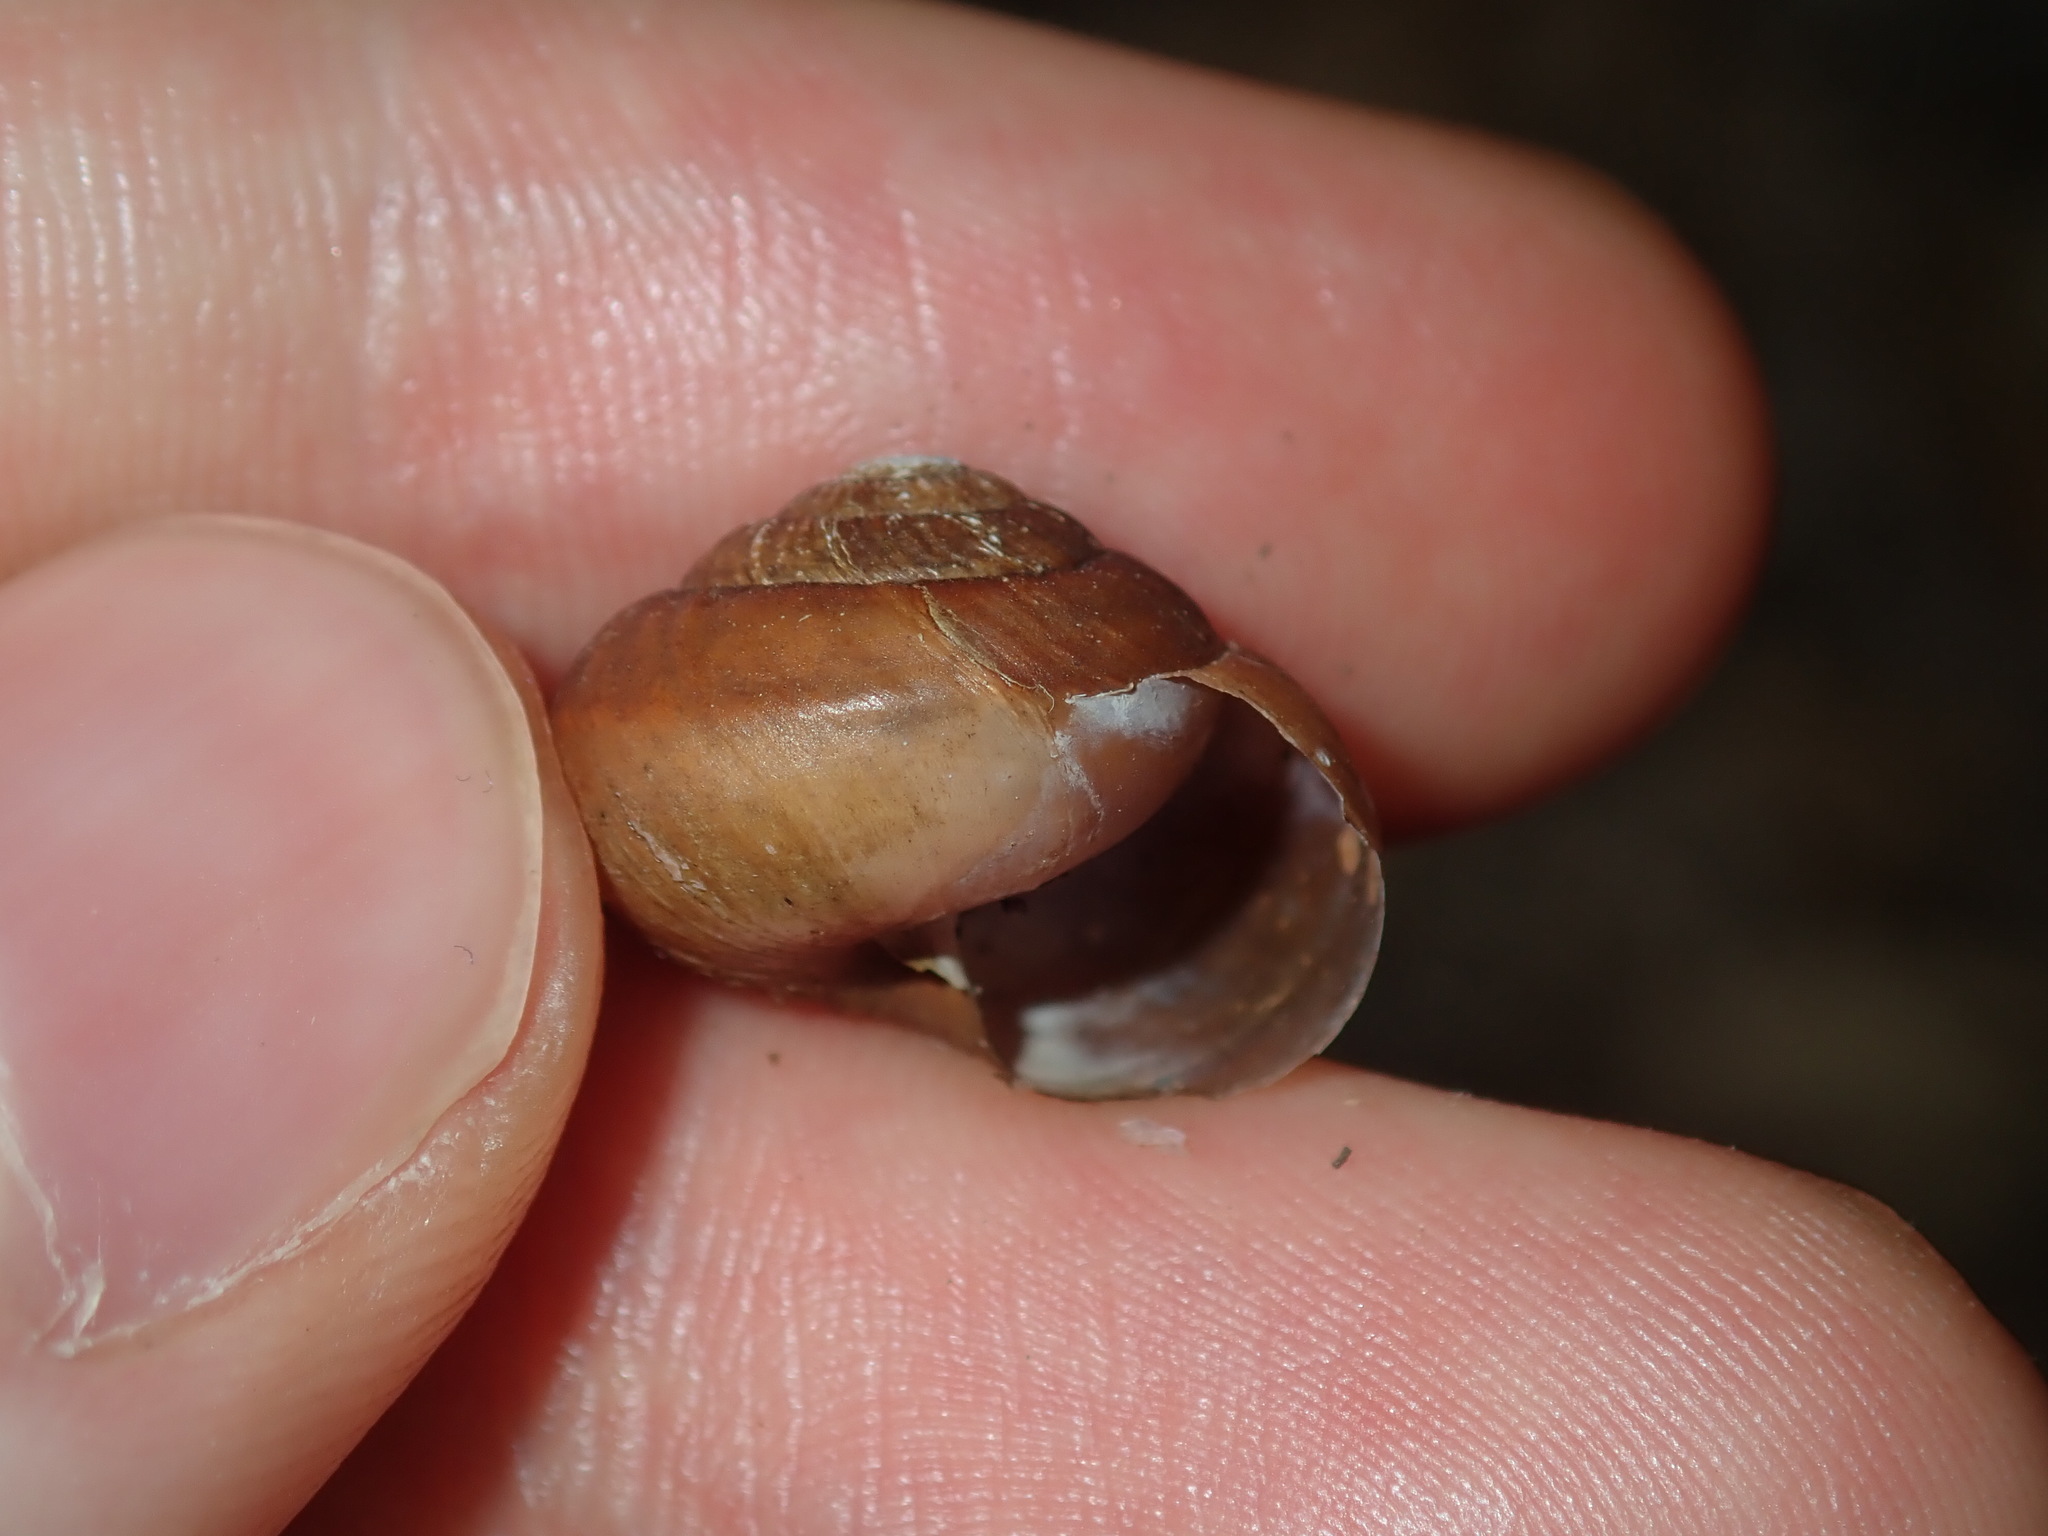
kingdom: Animalia
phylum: Mollusca
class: Gastropoda
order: Stylommatophora
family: Camaenidae
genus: Sauroconcha
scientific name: Sauroconcha sheai
